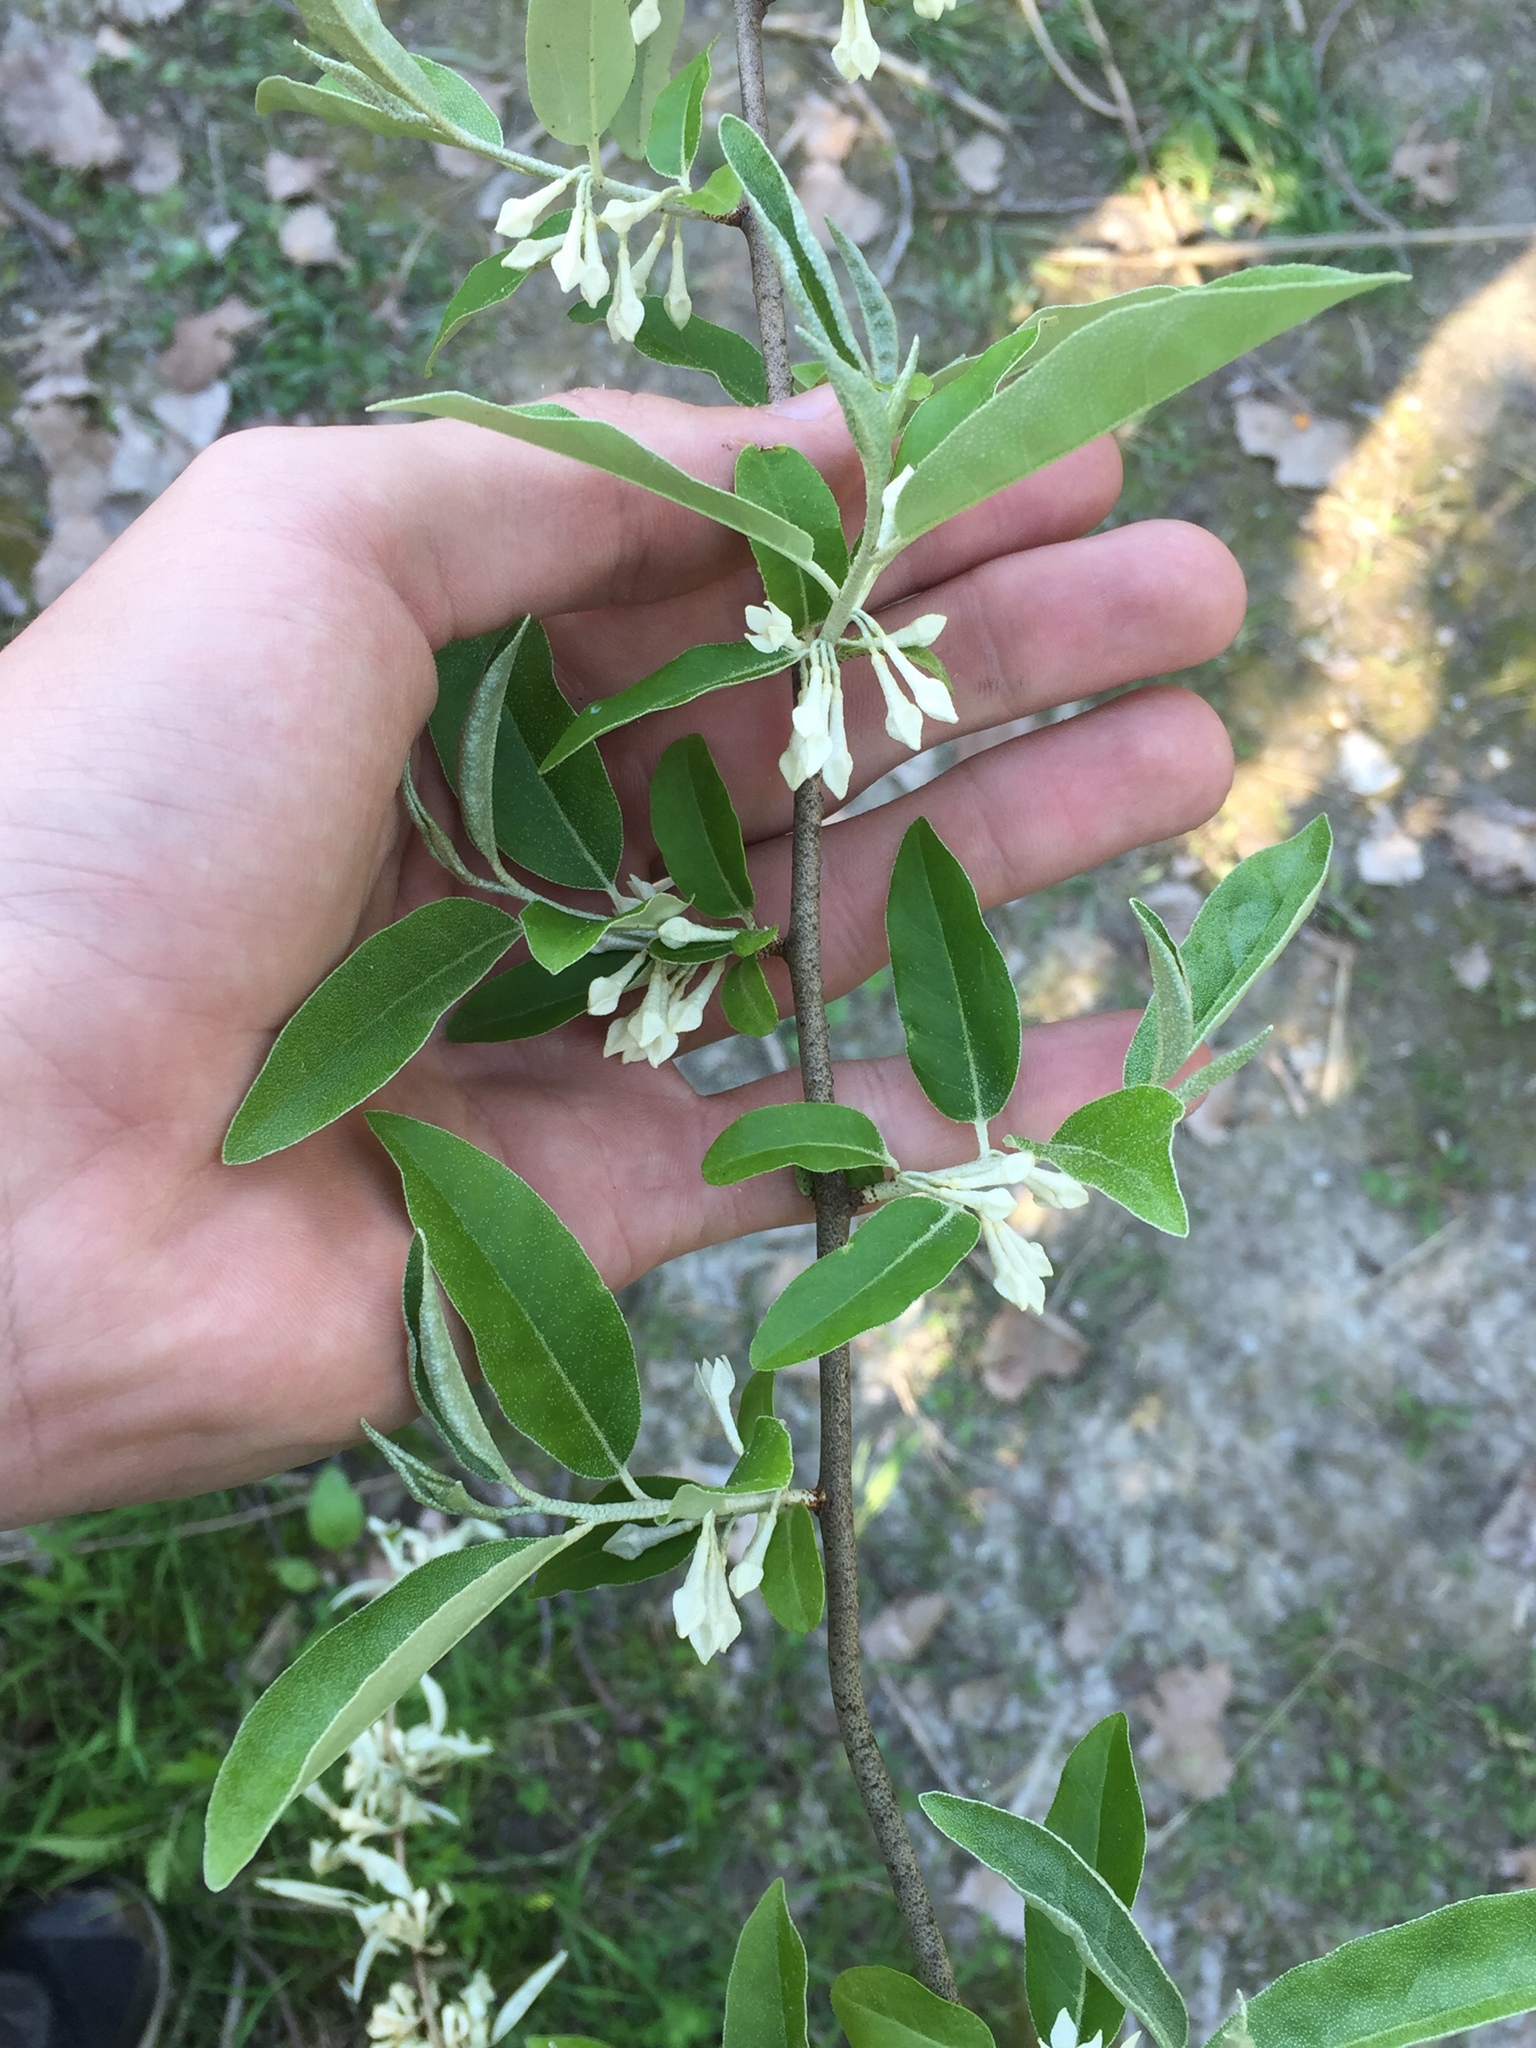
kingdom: Plantae
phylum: Tracheophyta
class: Magnoliopsida
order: Rosales
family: Elaeagnaceae
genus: Elaeagnus
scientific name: Elaeagnus umbellata
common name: Autumn olive
